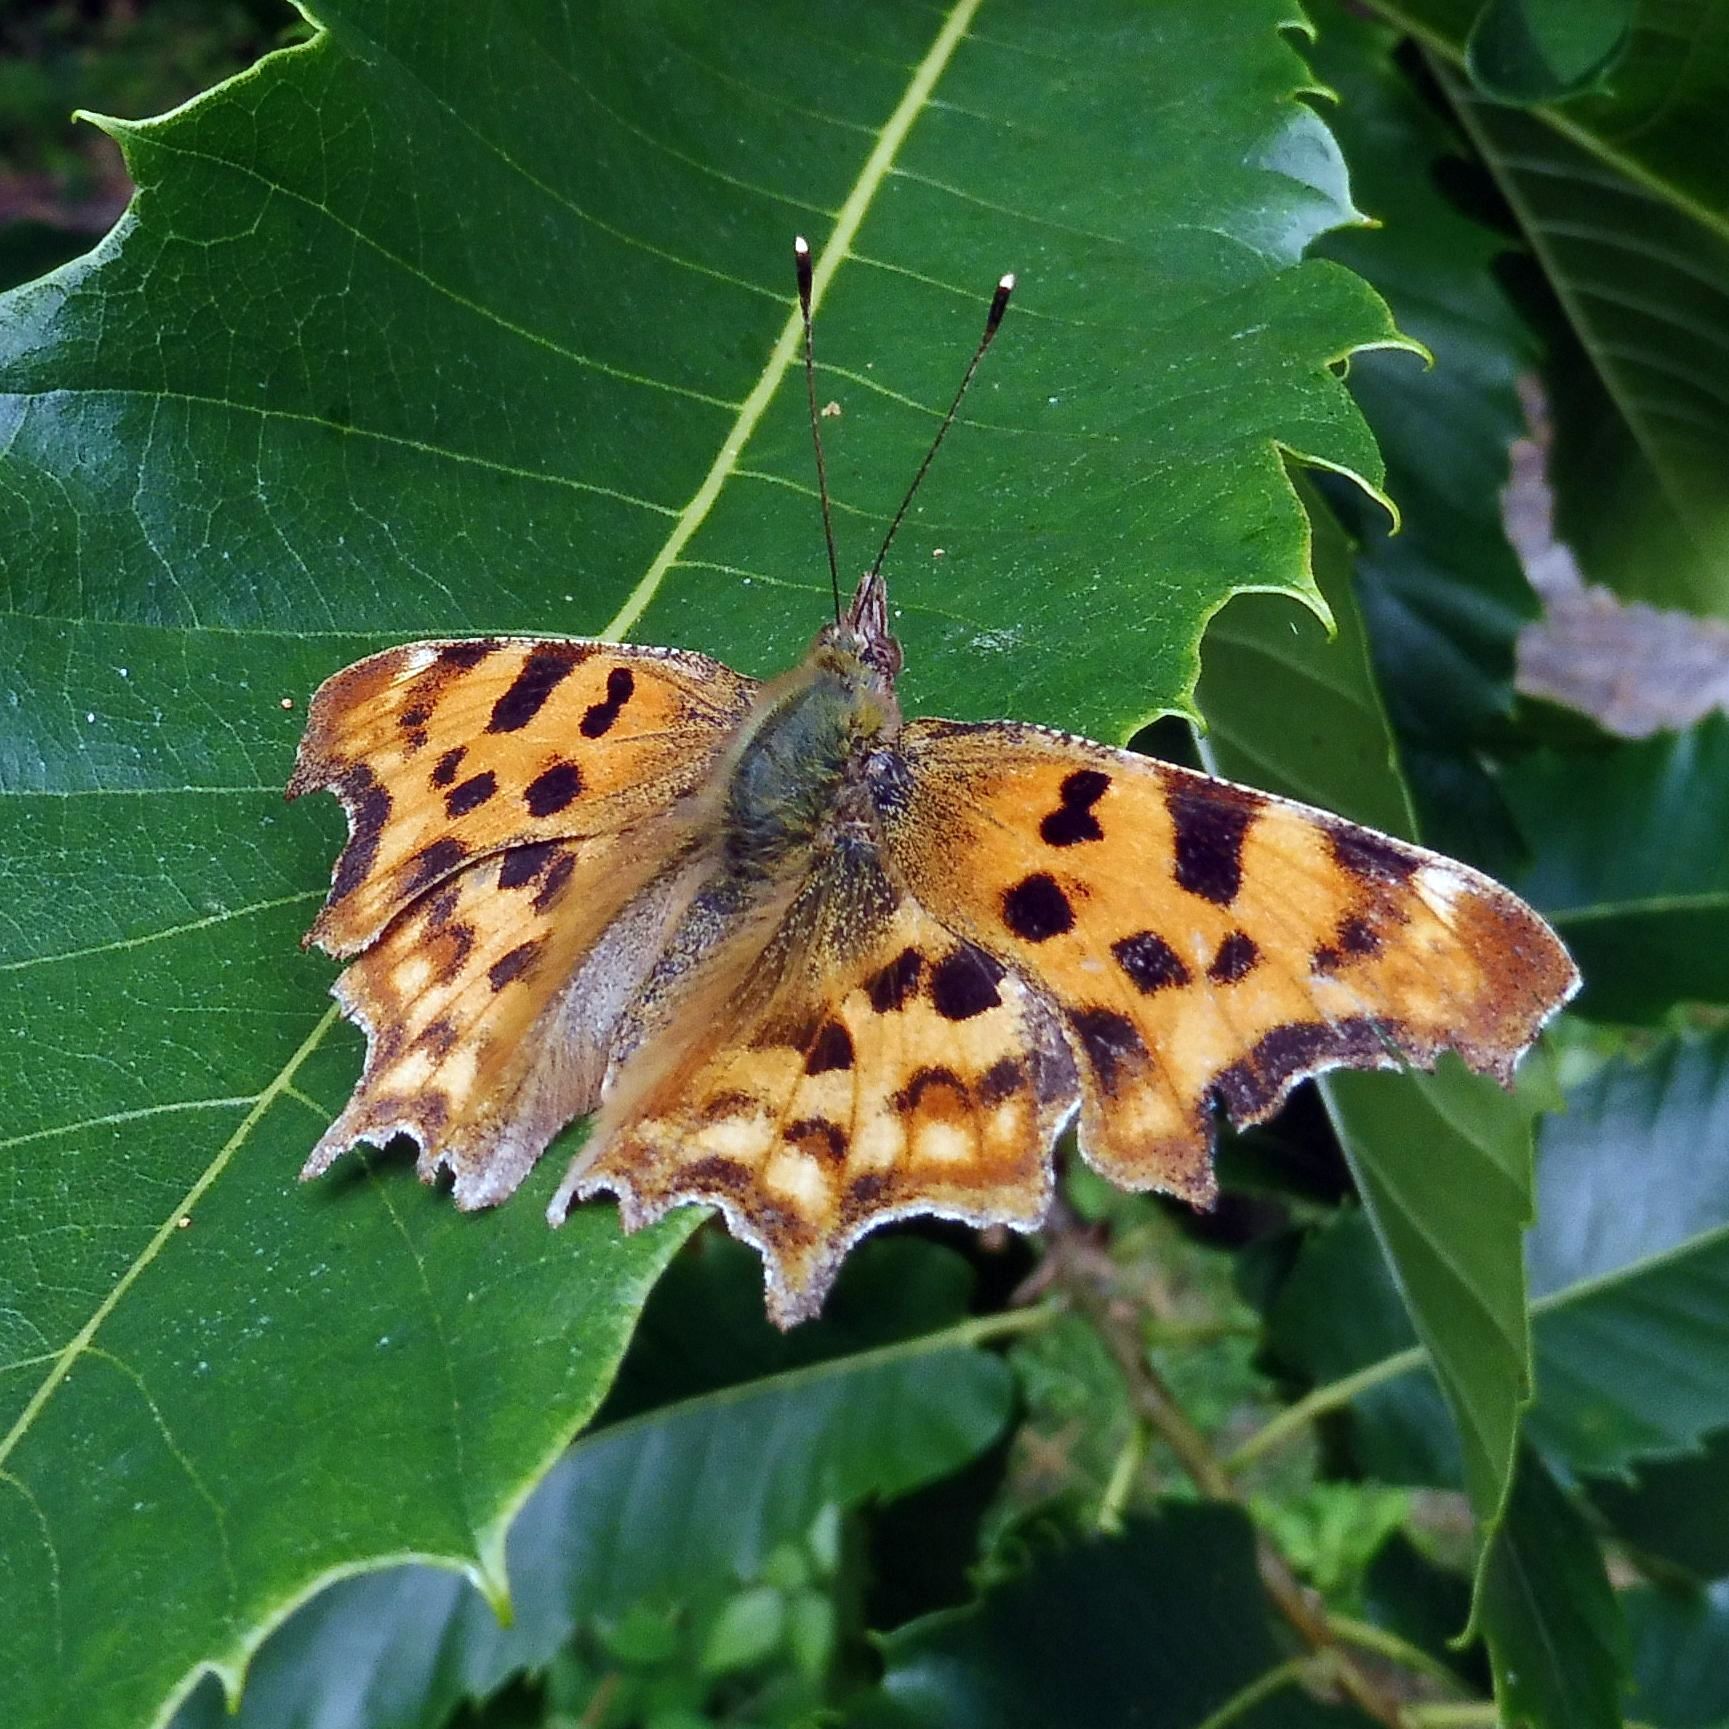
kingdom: Animalia
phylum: Arthropoda
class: Insecta
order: Lepidoptera
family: Nymphalidae
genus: Polygonia
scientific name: Polygonia c-album
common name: Comma
